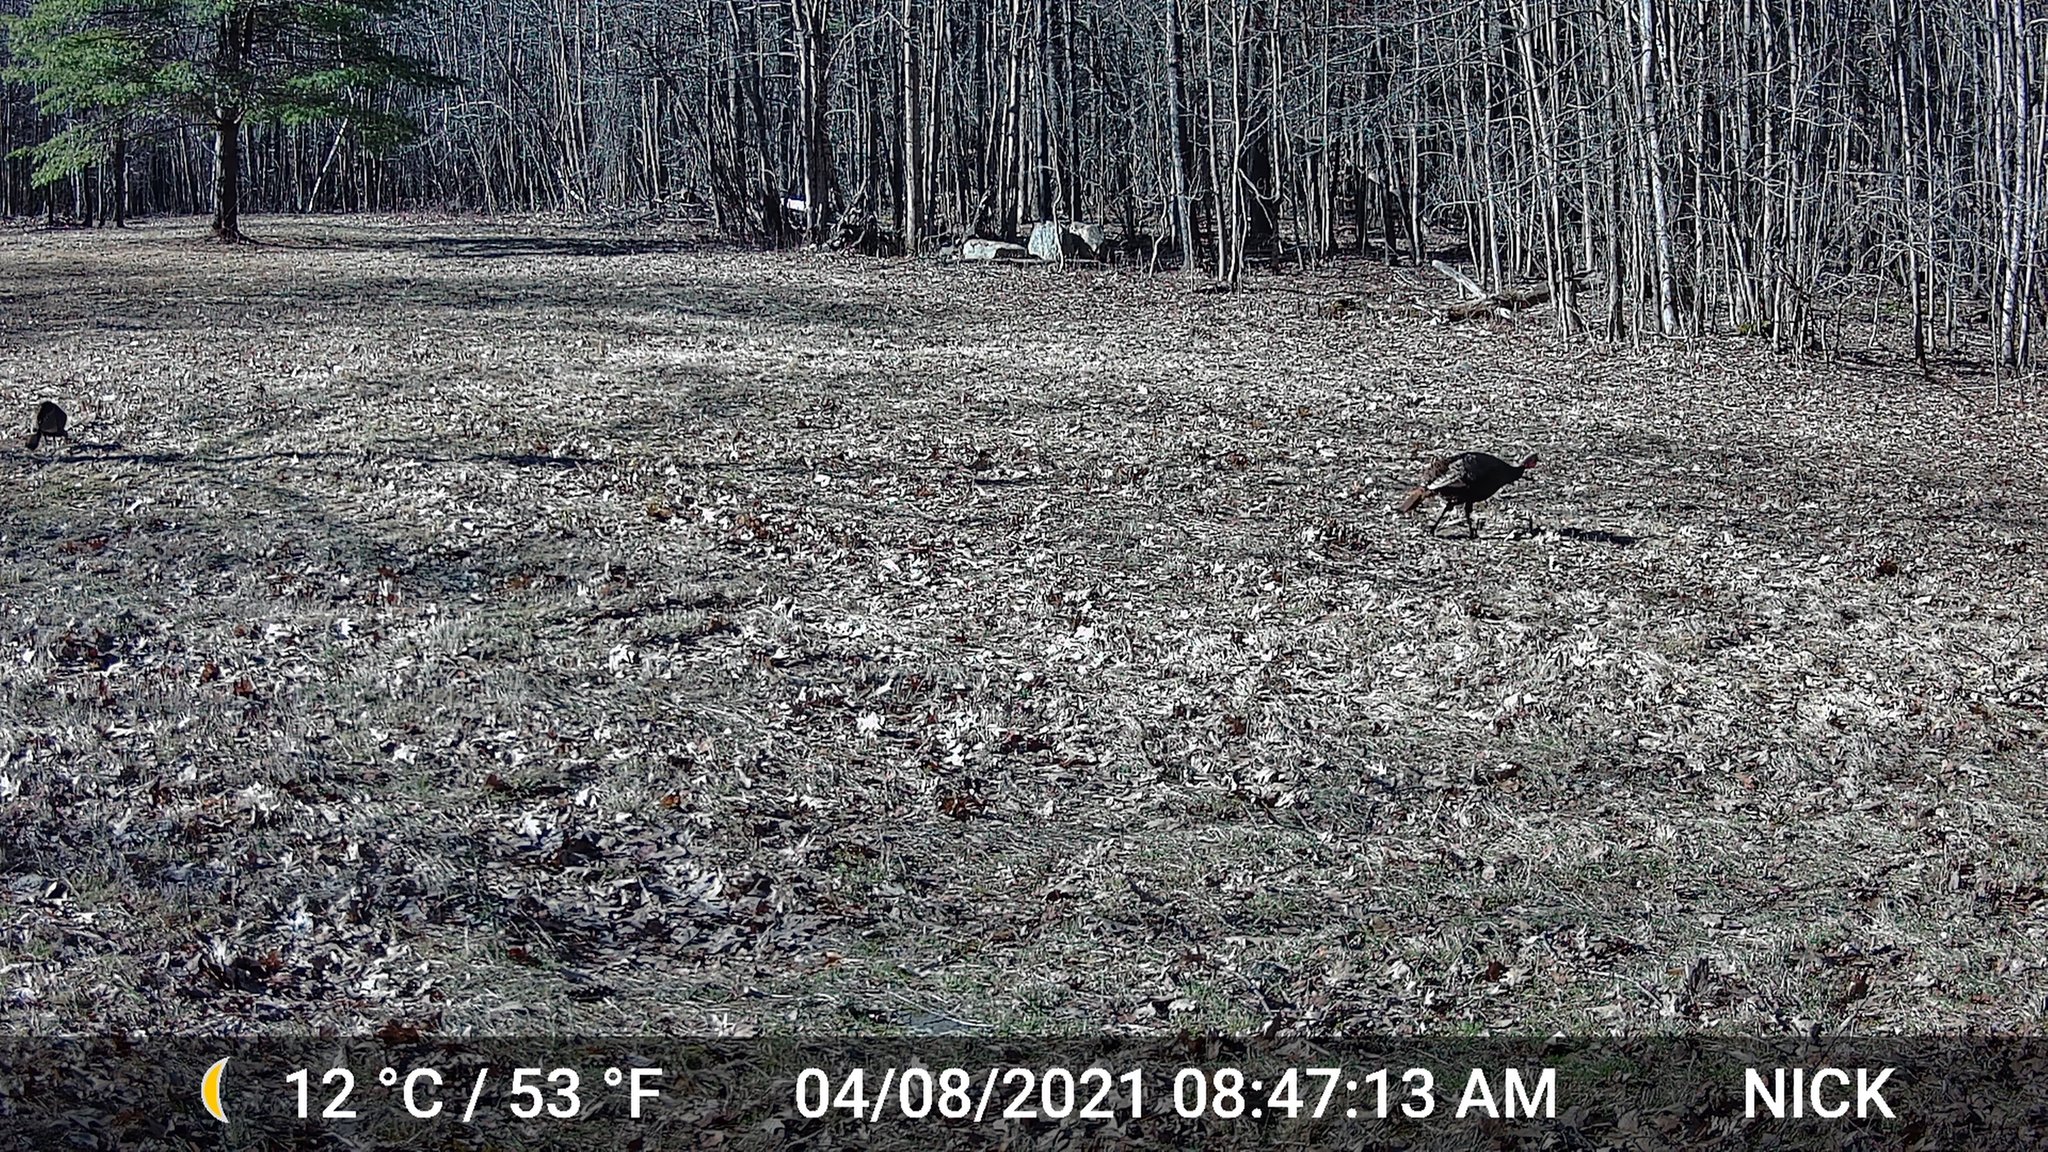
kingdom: Animalia
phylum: Chordata
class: Aves
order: Galliformes
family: Phasianidae
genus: Meleagris
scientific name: Meleagris gallopavo
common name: Wild turkey
